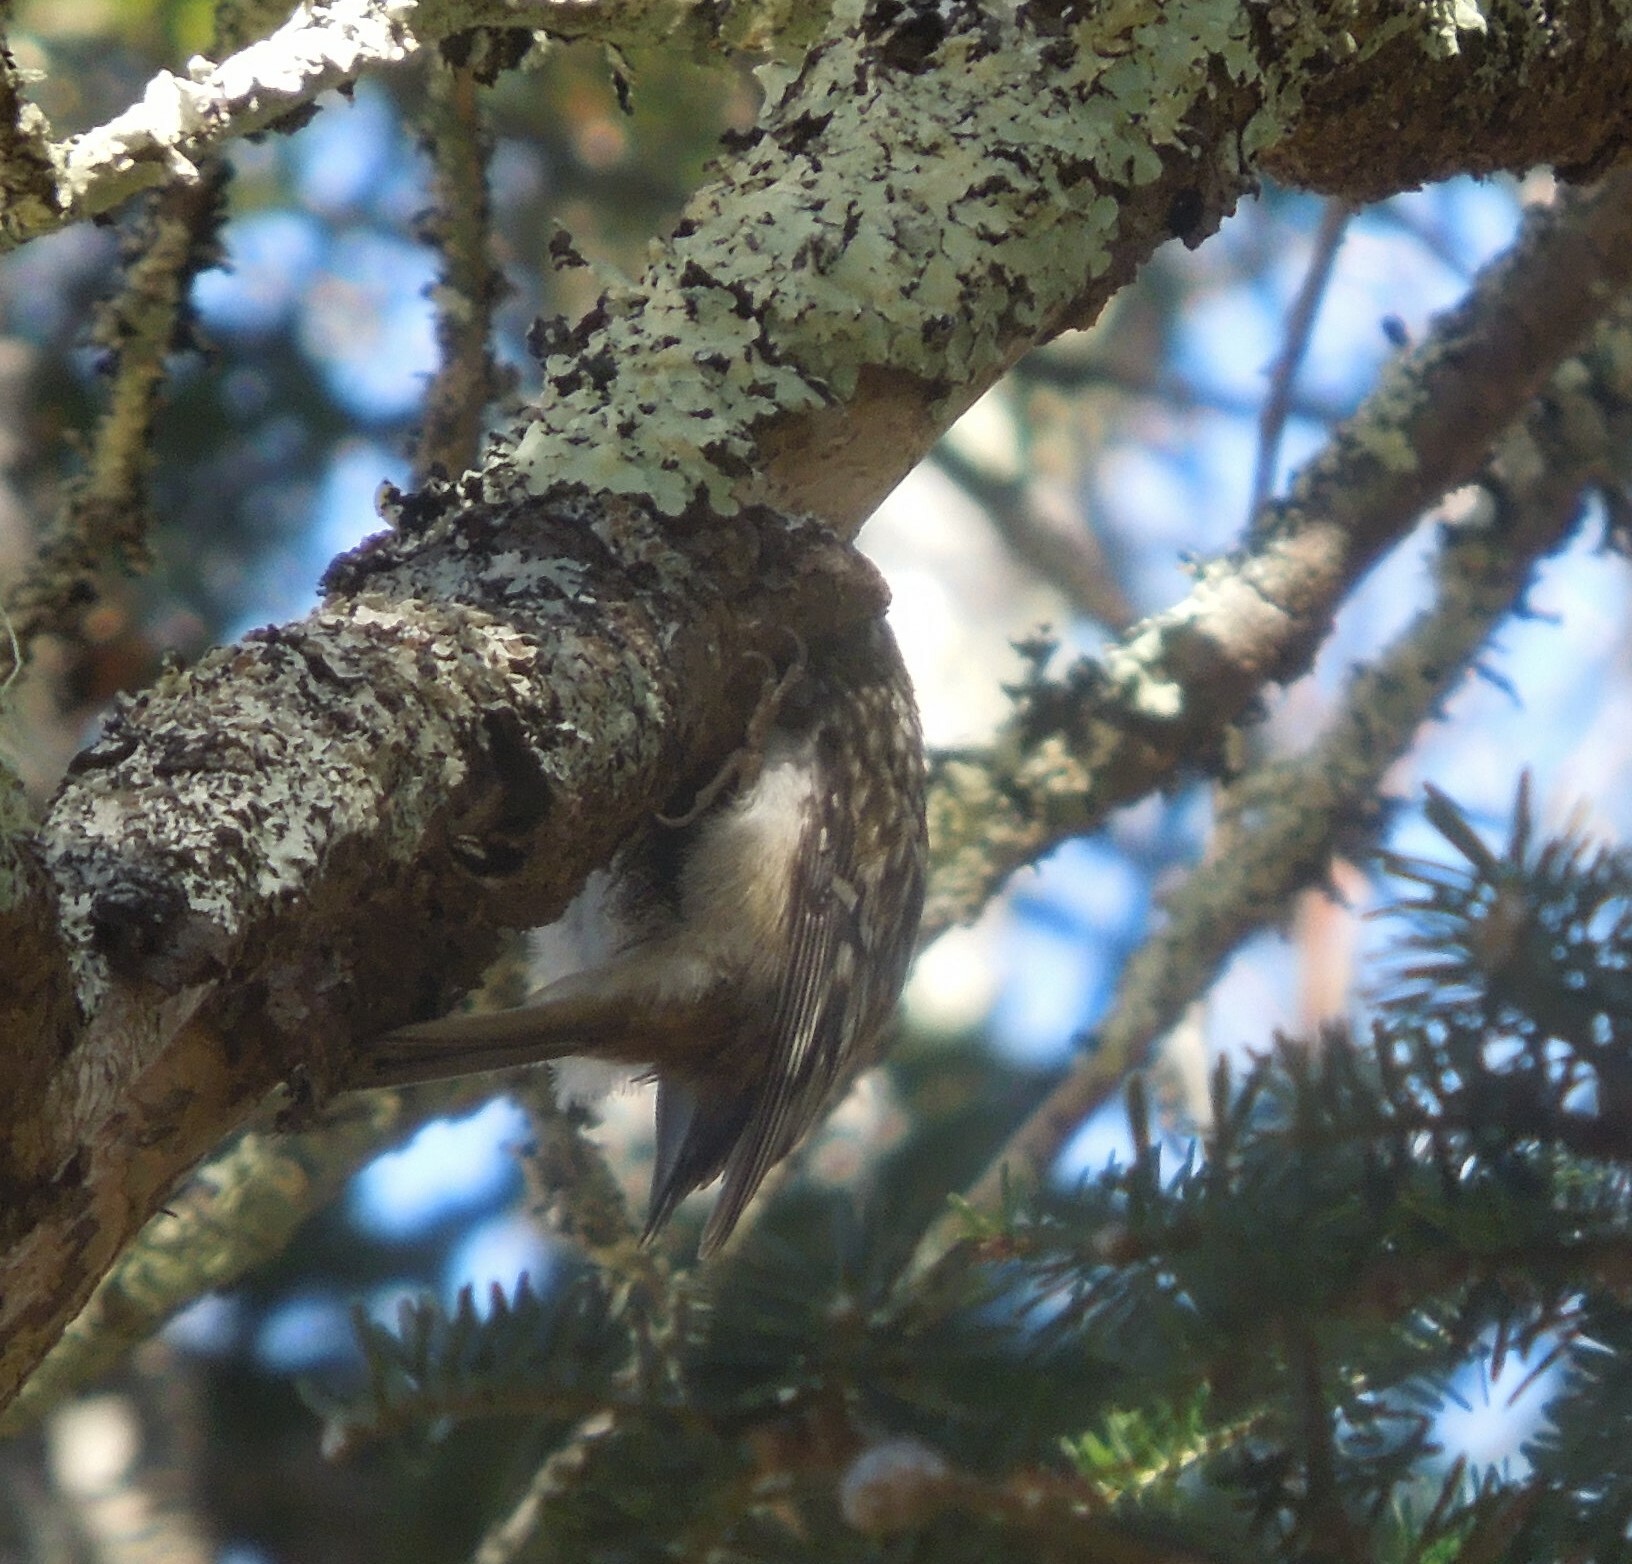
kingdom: Animalia
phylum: Chordata
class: Aves
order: Passeriformes
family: Certhiidae
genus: Certhia
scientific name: Certhia americana
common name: Brown creeper
